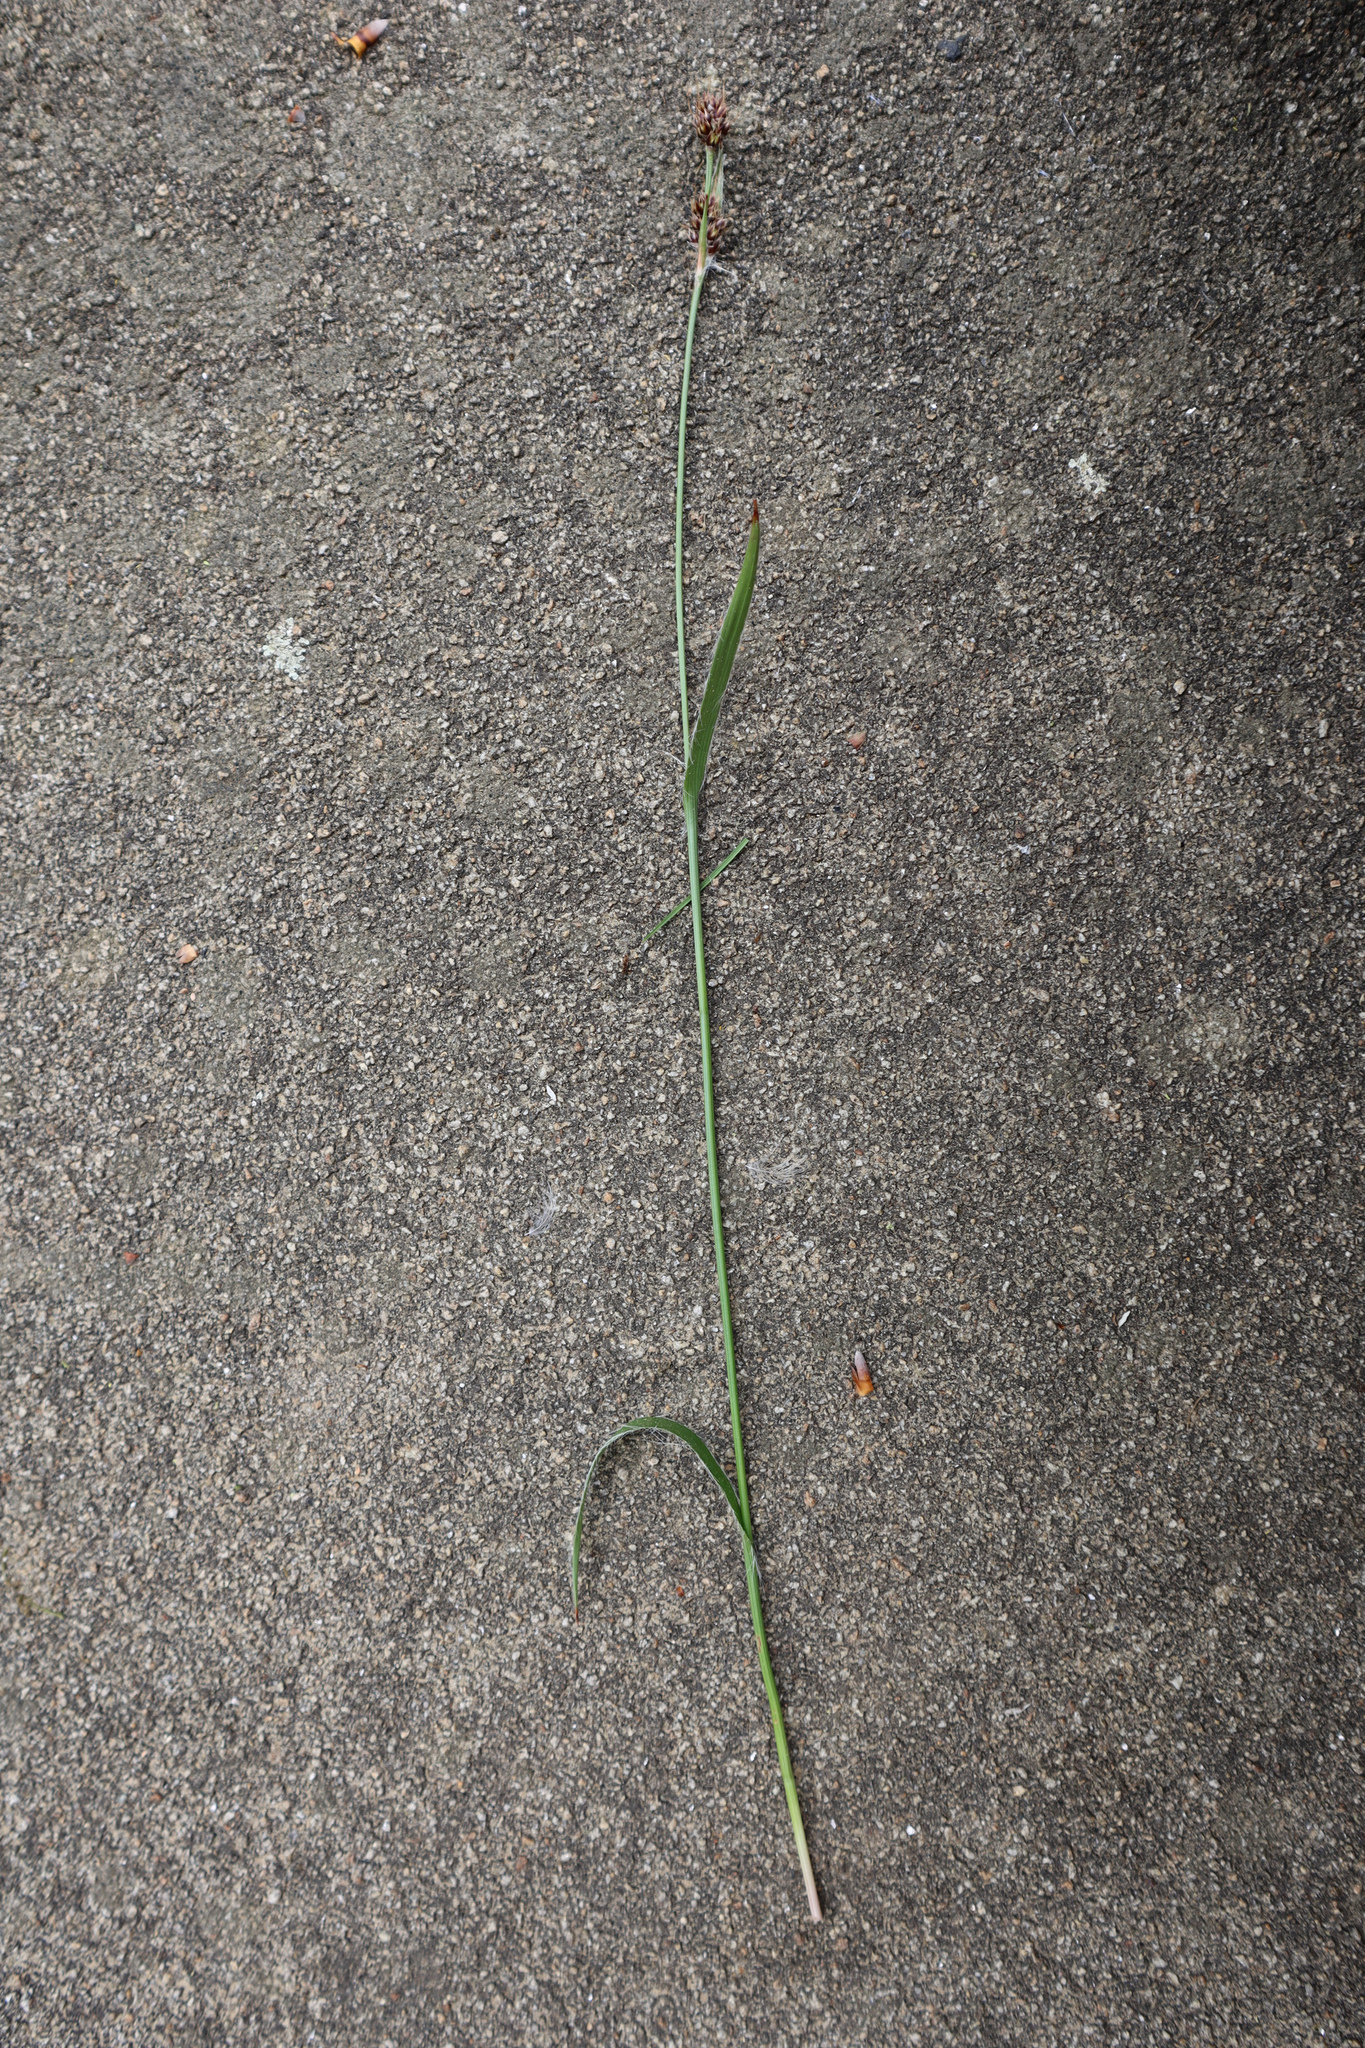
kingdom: Plantae
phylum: Tracheophyta
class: Liliopsida
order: Poales
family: Juncaceae
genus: Luzula
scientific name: Luzula campestris
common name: Field wood-rush
